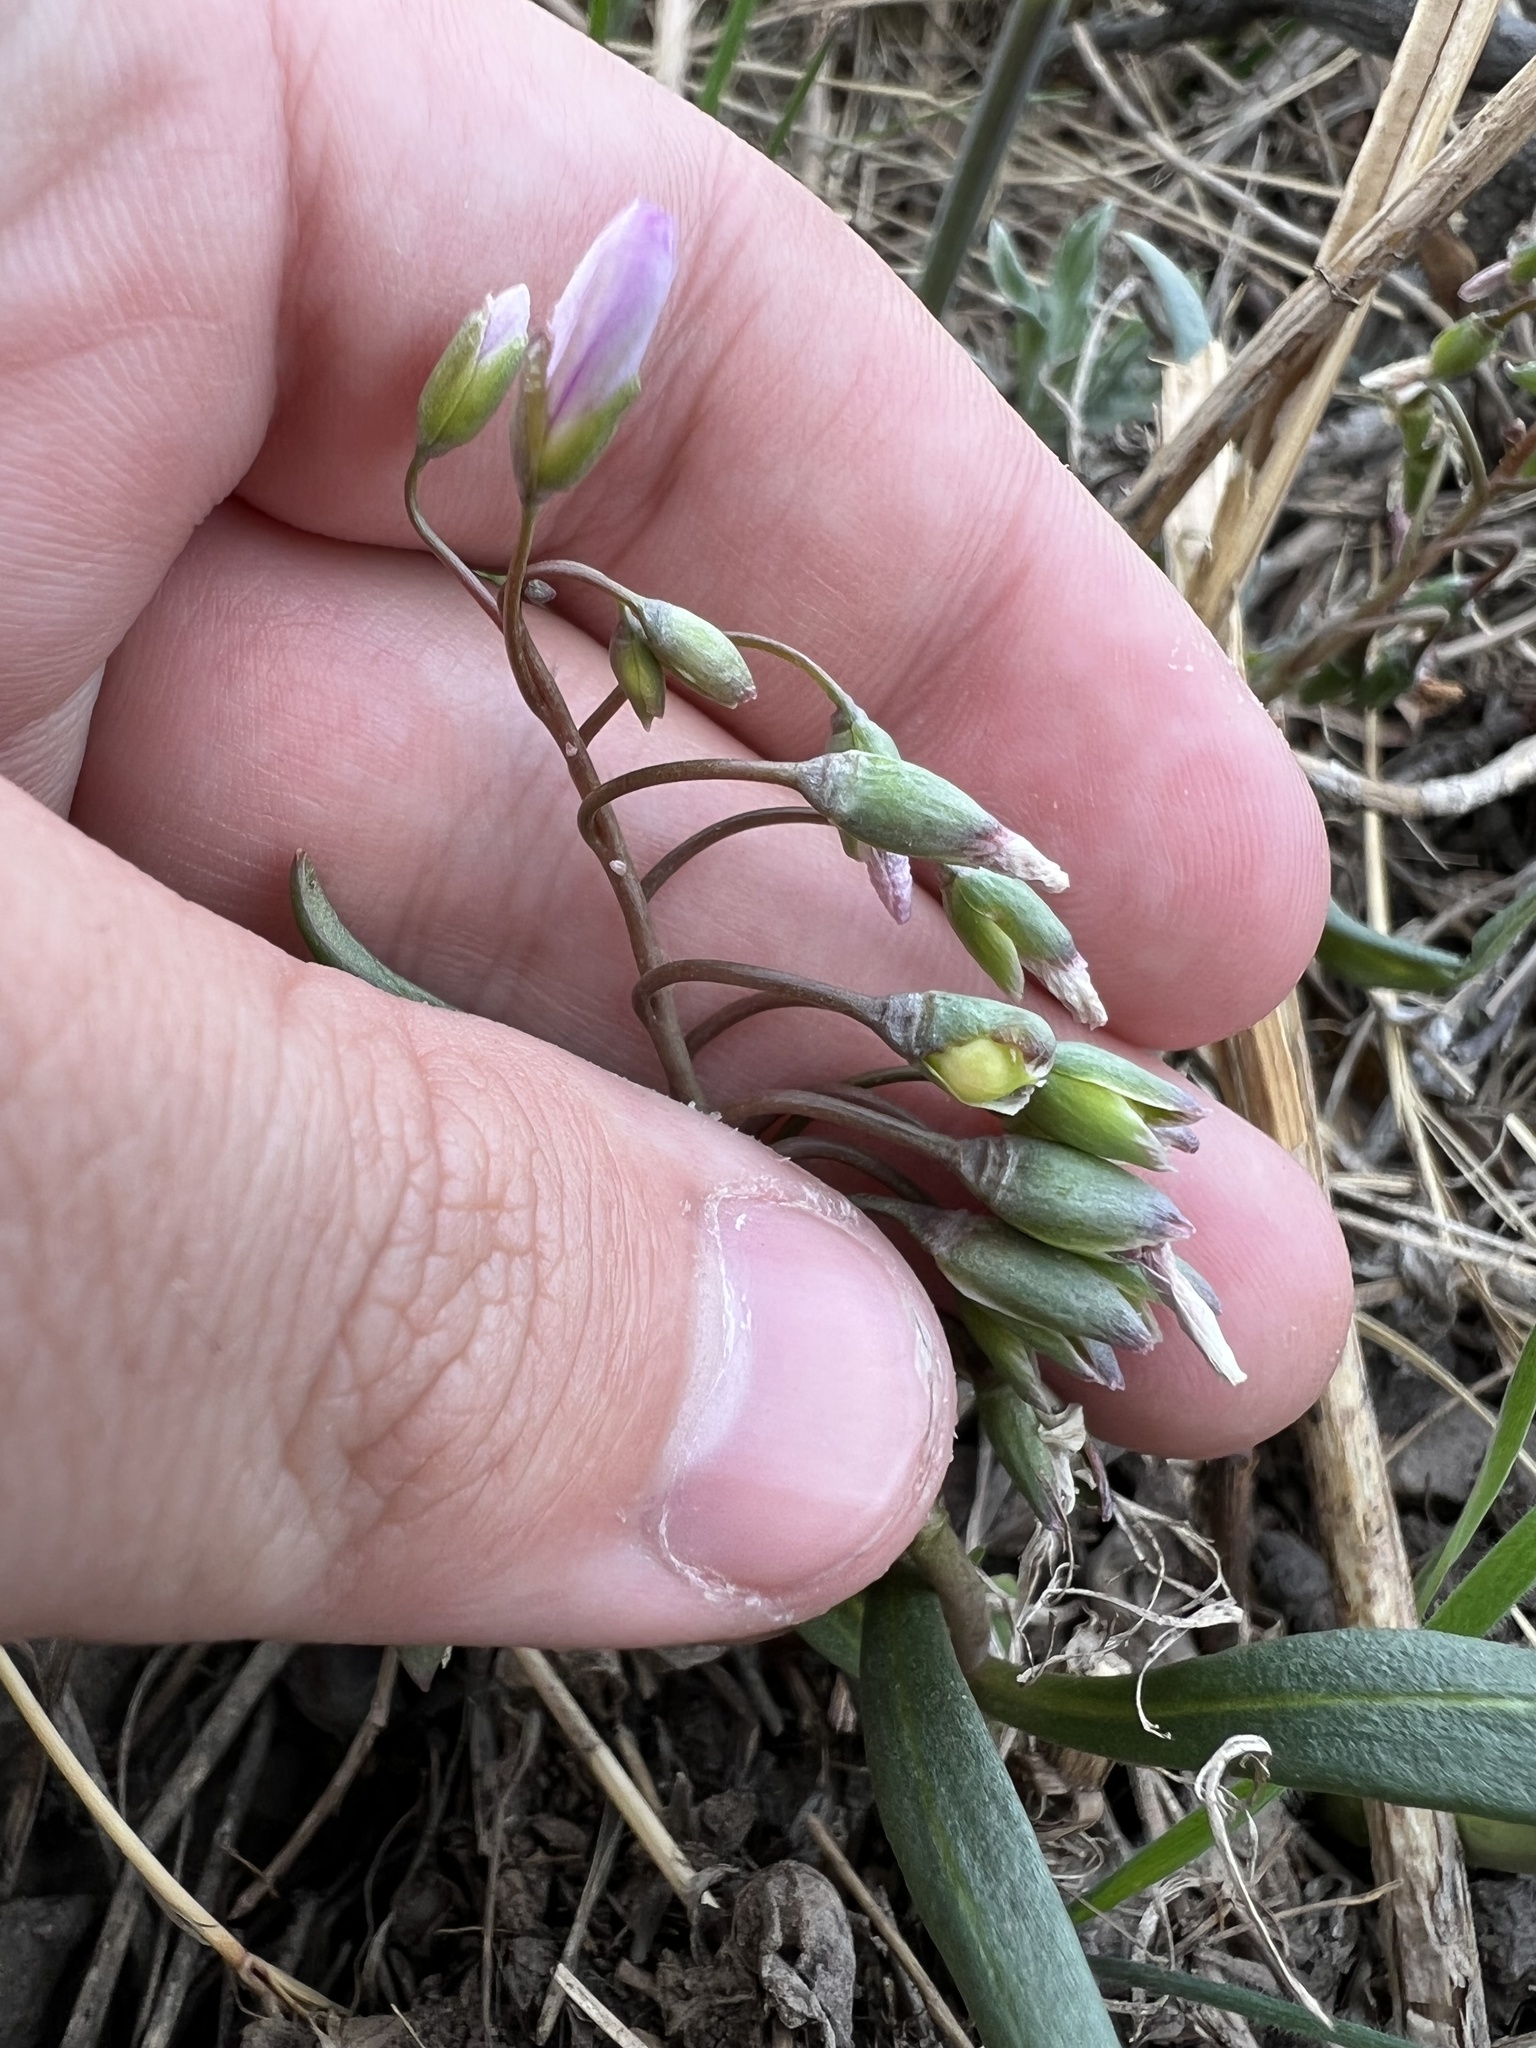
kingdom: Plantae
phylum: Tracheophyta
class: Magnoliopsida
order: Caryophyllales
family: Montiaceae
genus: Claytonia
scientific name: Claytonia rosea
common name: Rocky mountain spring-beauty
